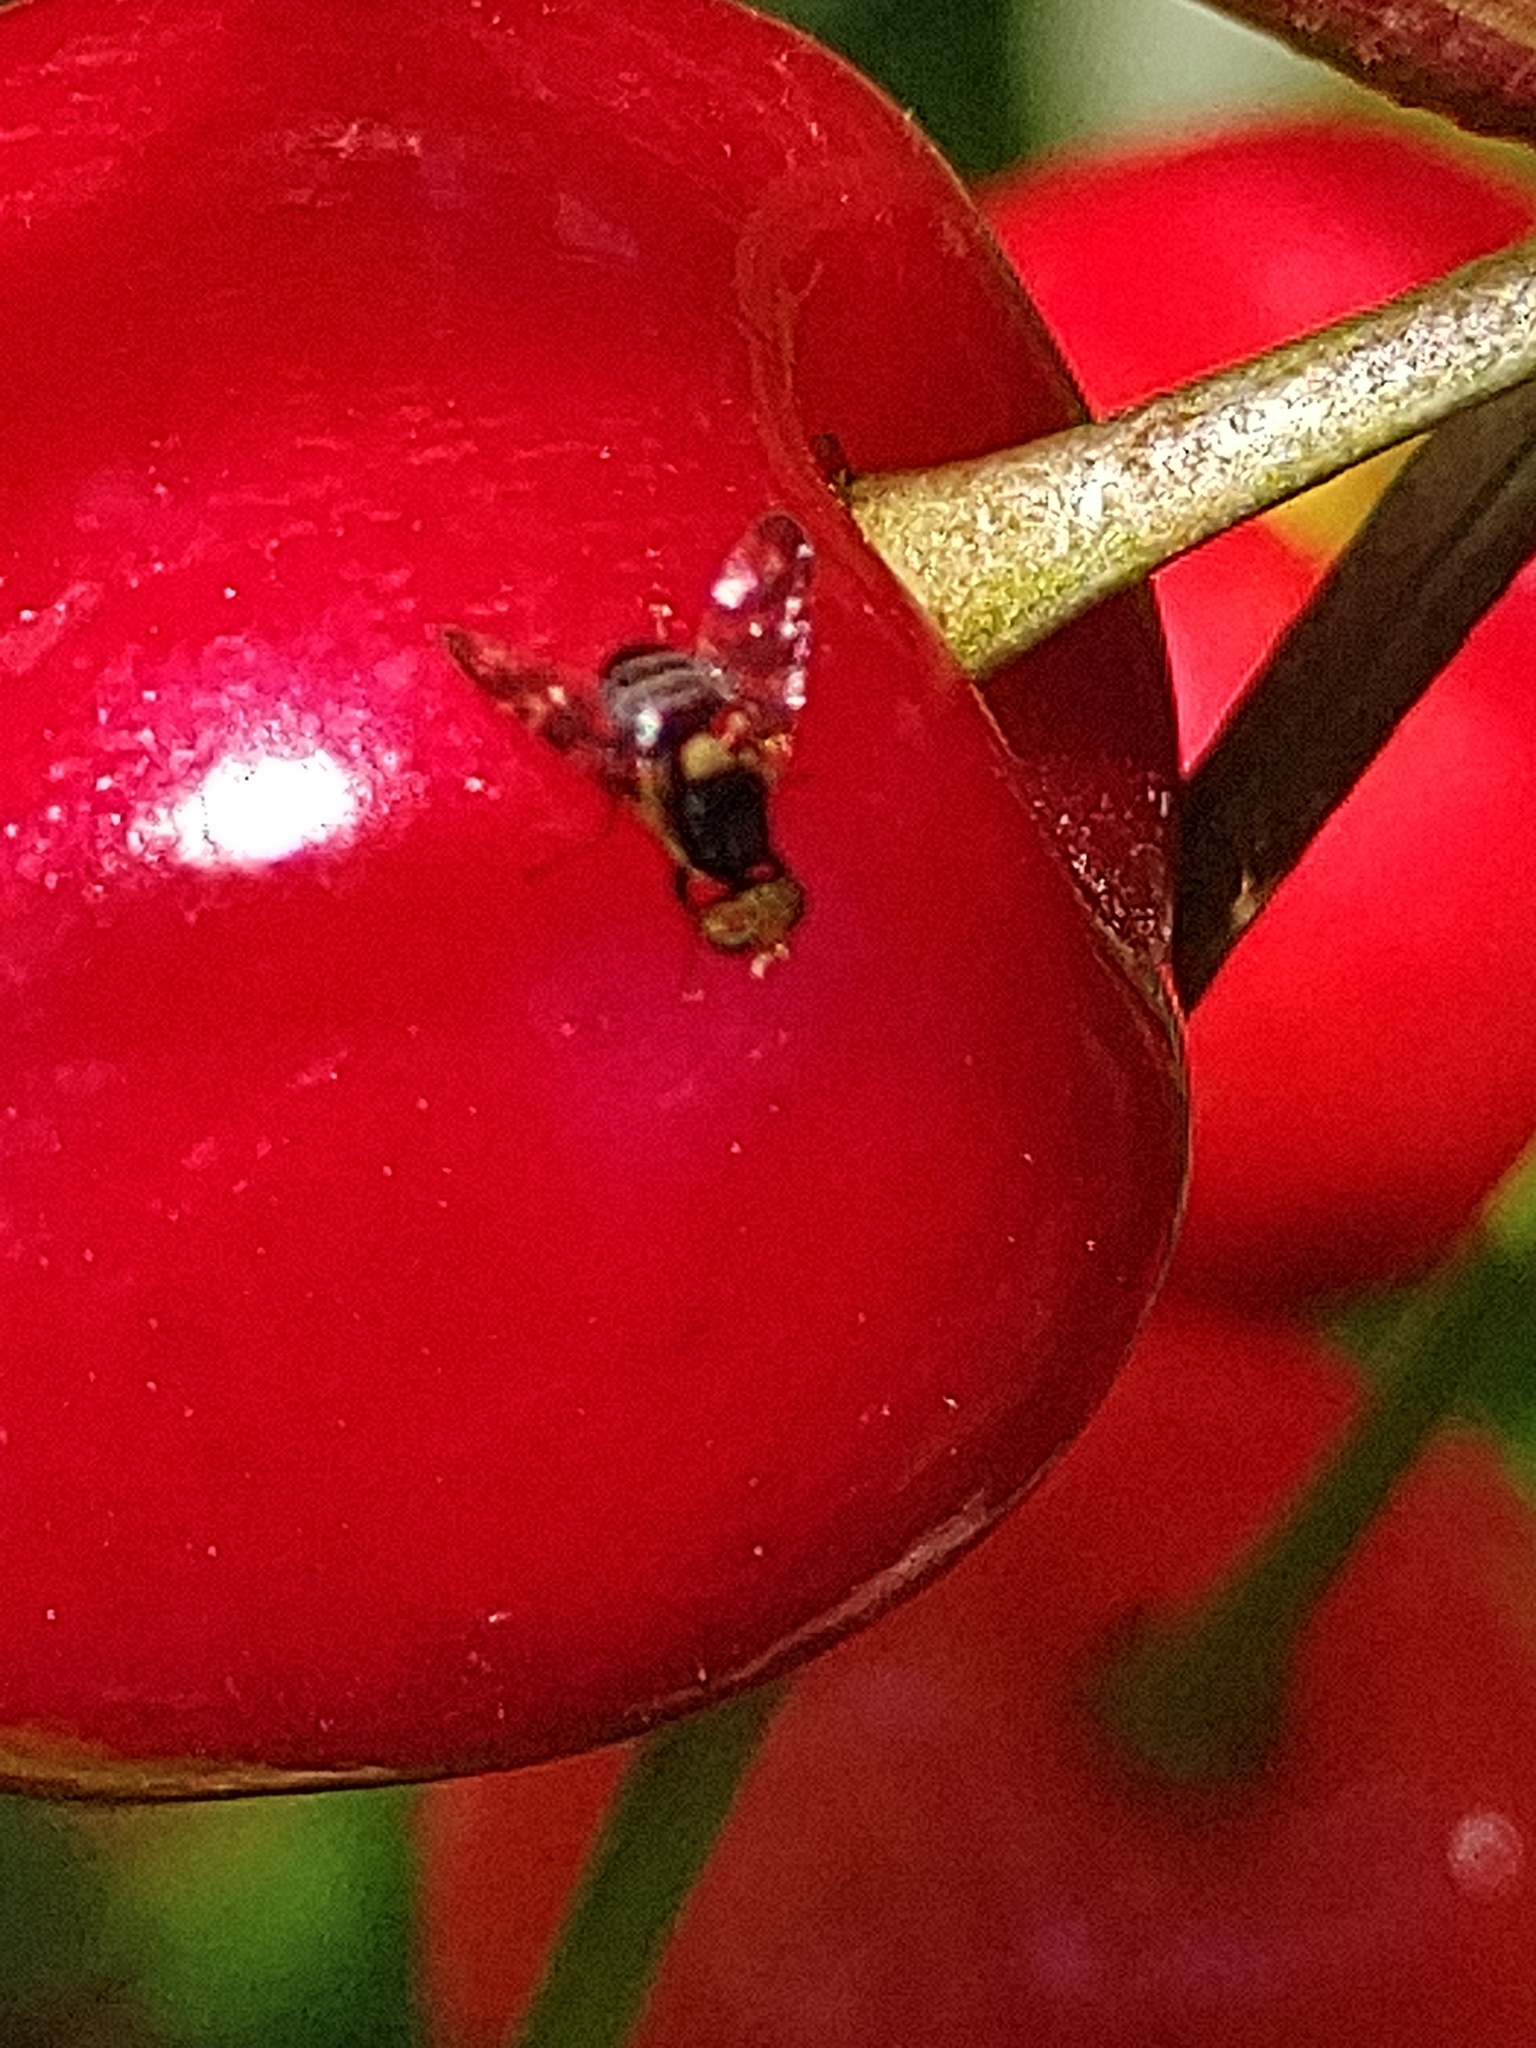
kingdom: Animalia
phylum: Arthropoda
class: Insecta
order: Diptera
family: Tephritidae
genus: Rhagoletis
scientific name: Rhagoletis cerasi
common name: European cherry fruit fly
